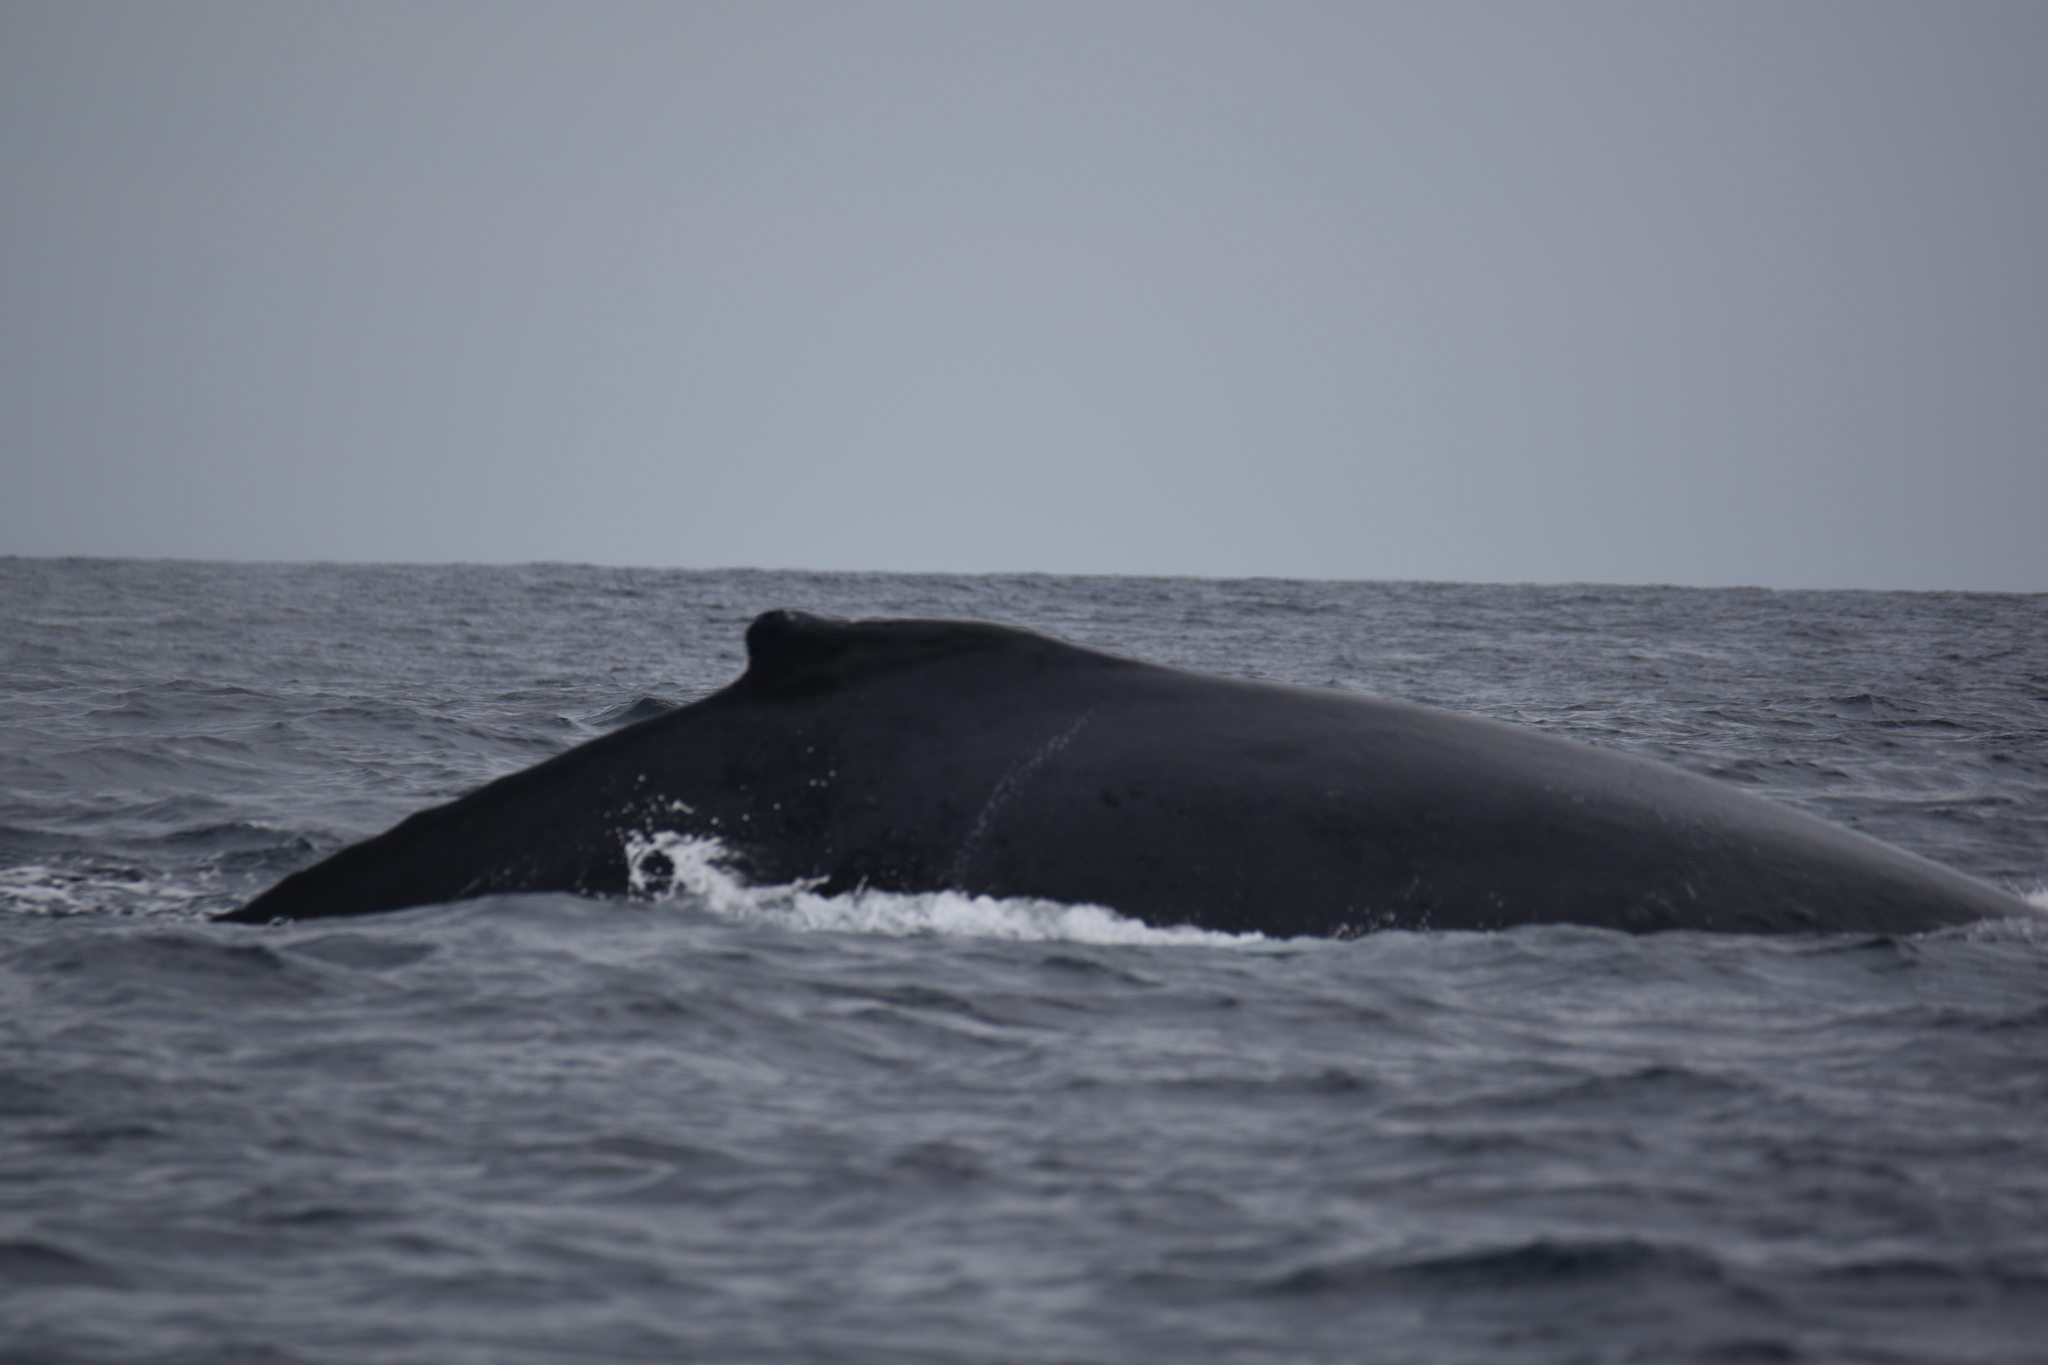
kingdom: Animalia
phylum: Chordata
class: Mammalia
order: Cetacea
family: Balaenopteridae
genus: Megaptera
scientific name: Megaptera novaeangliae
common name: Humpback whale
